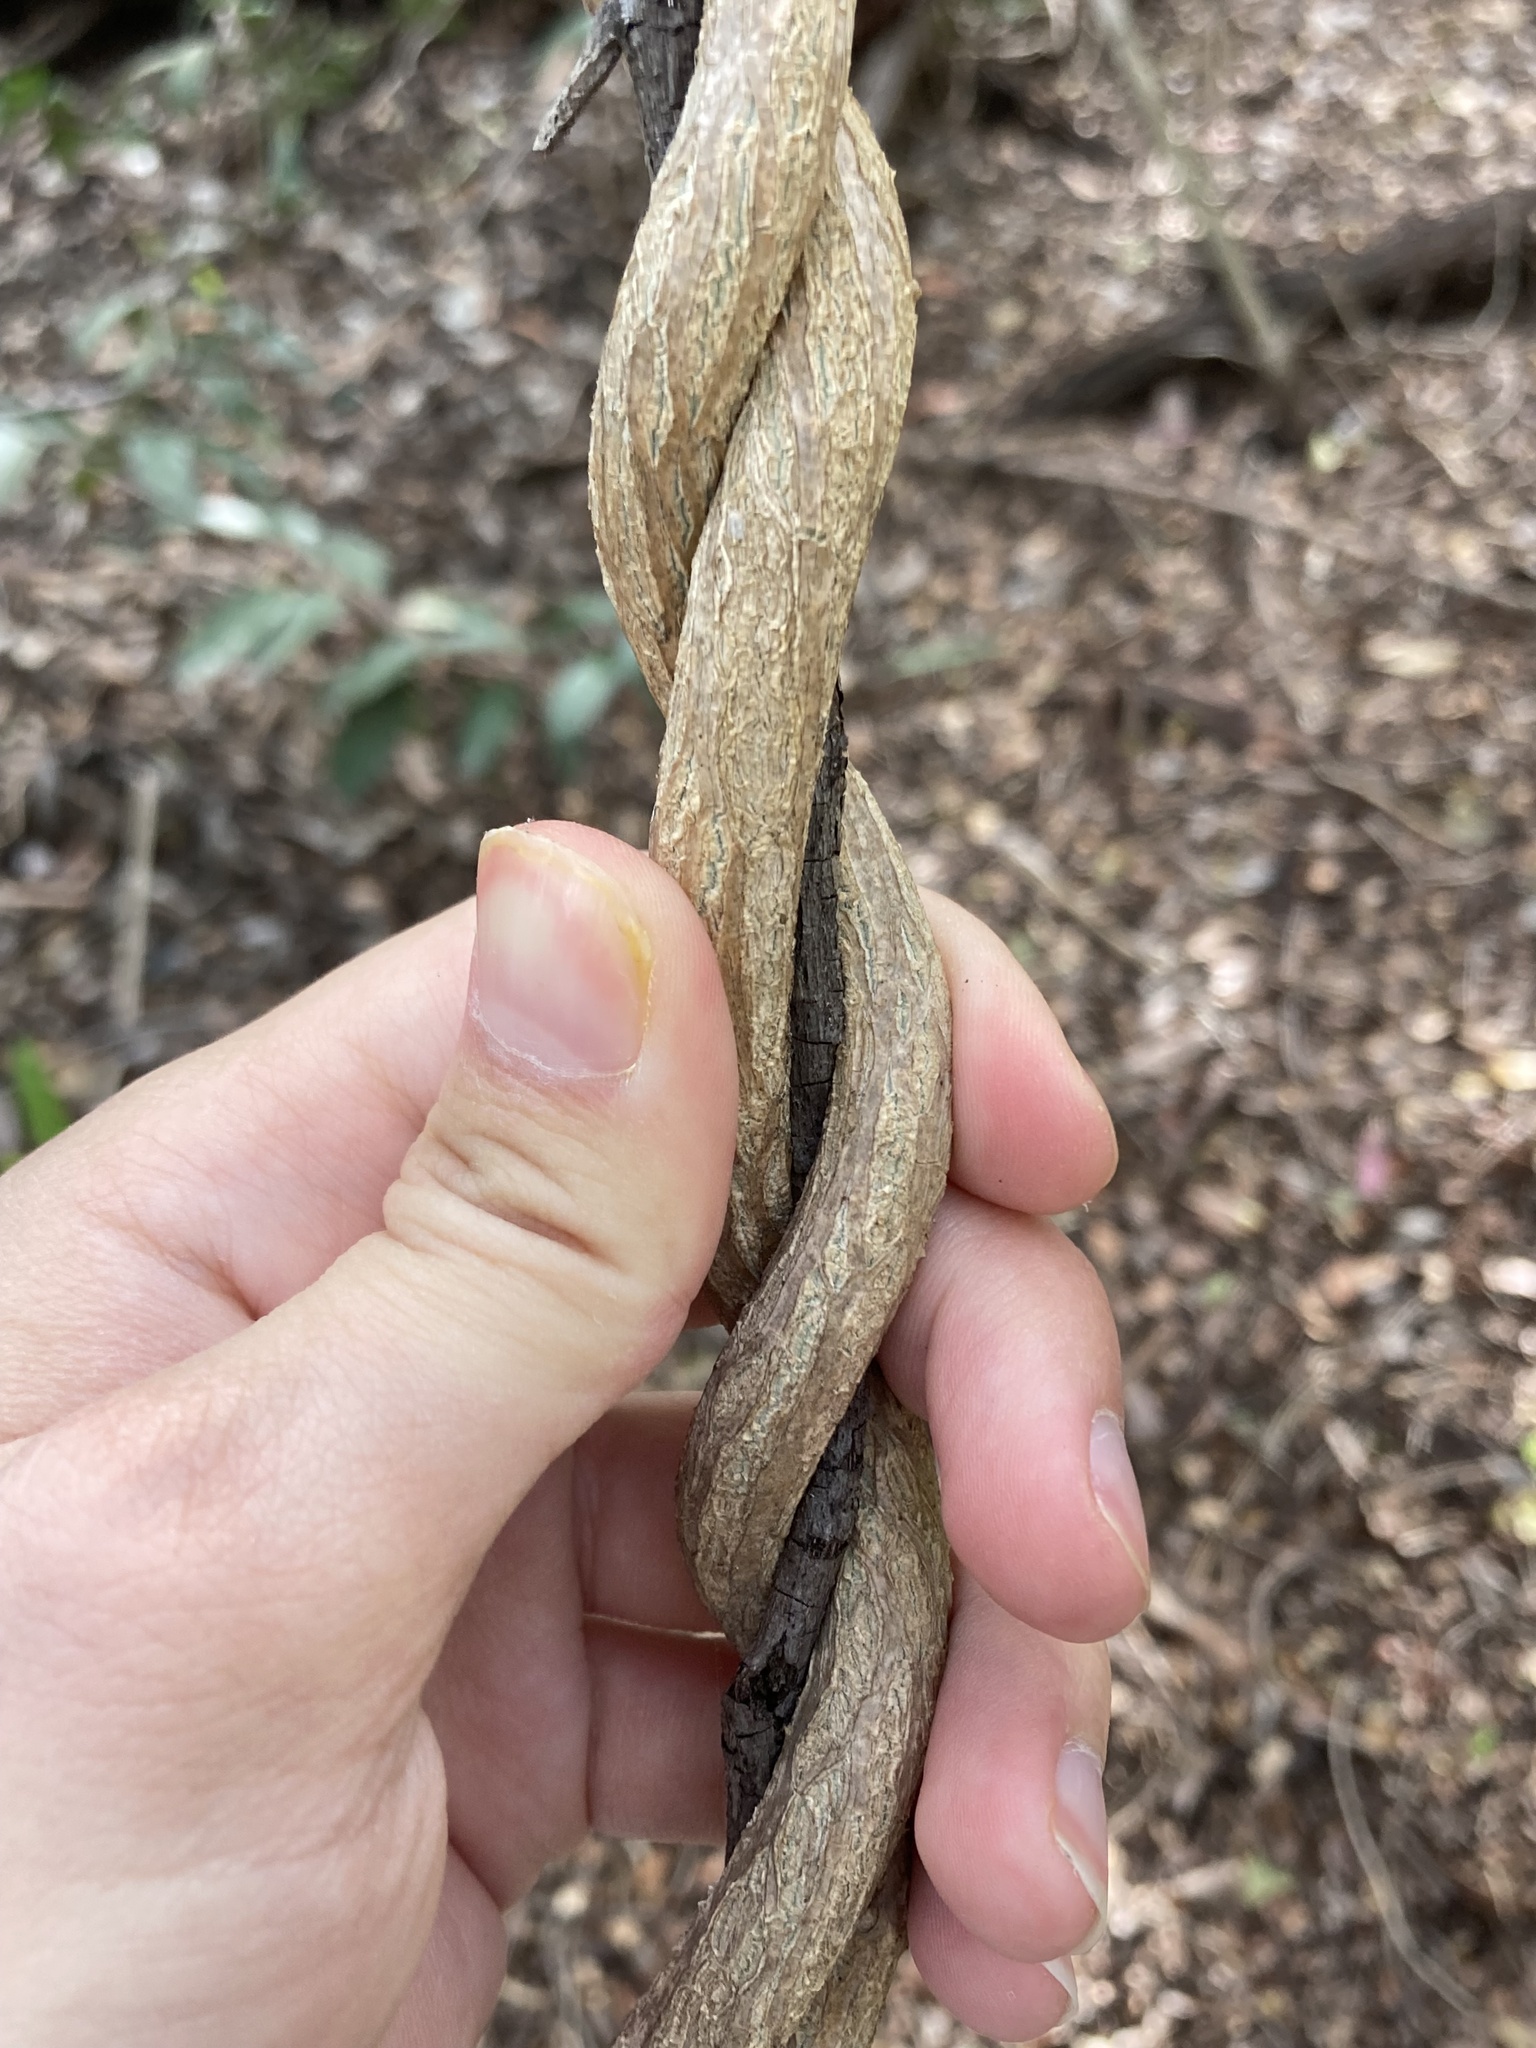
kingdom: Plantae
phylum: Tracheophyta
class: Magnoliopsida
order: Gentianales
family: Apocynaceae
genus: Araujia
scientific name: Araujia sericifera
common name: White bladderflower
